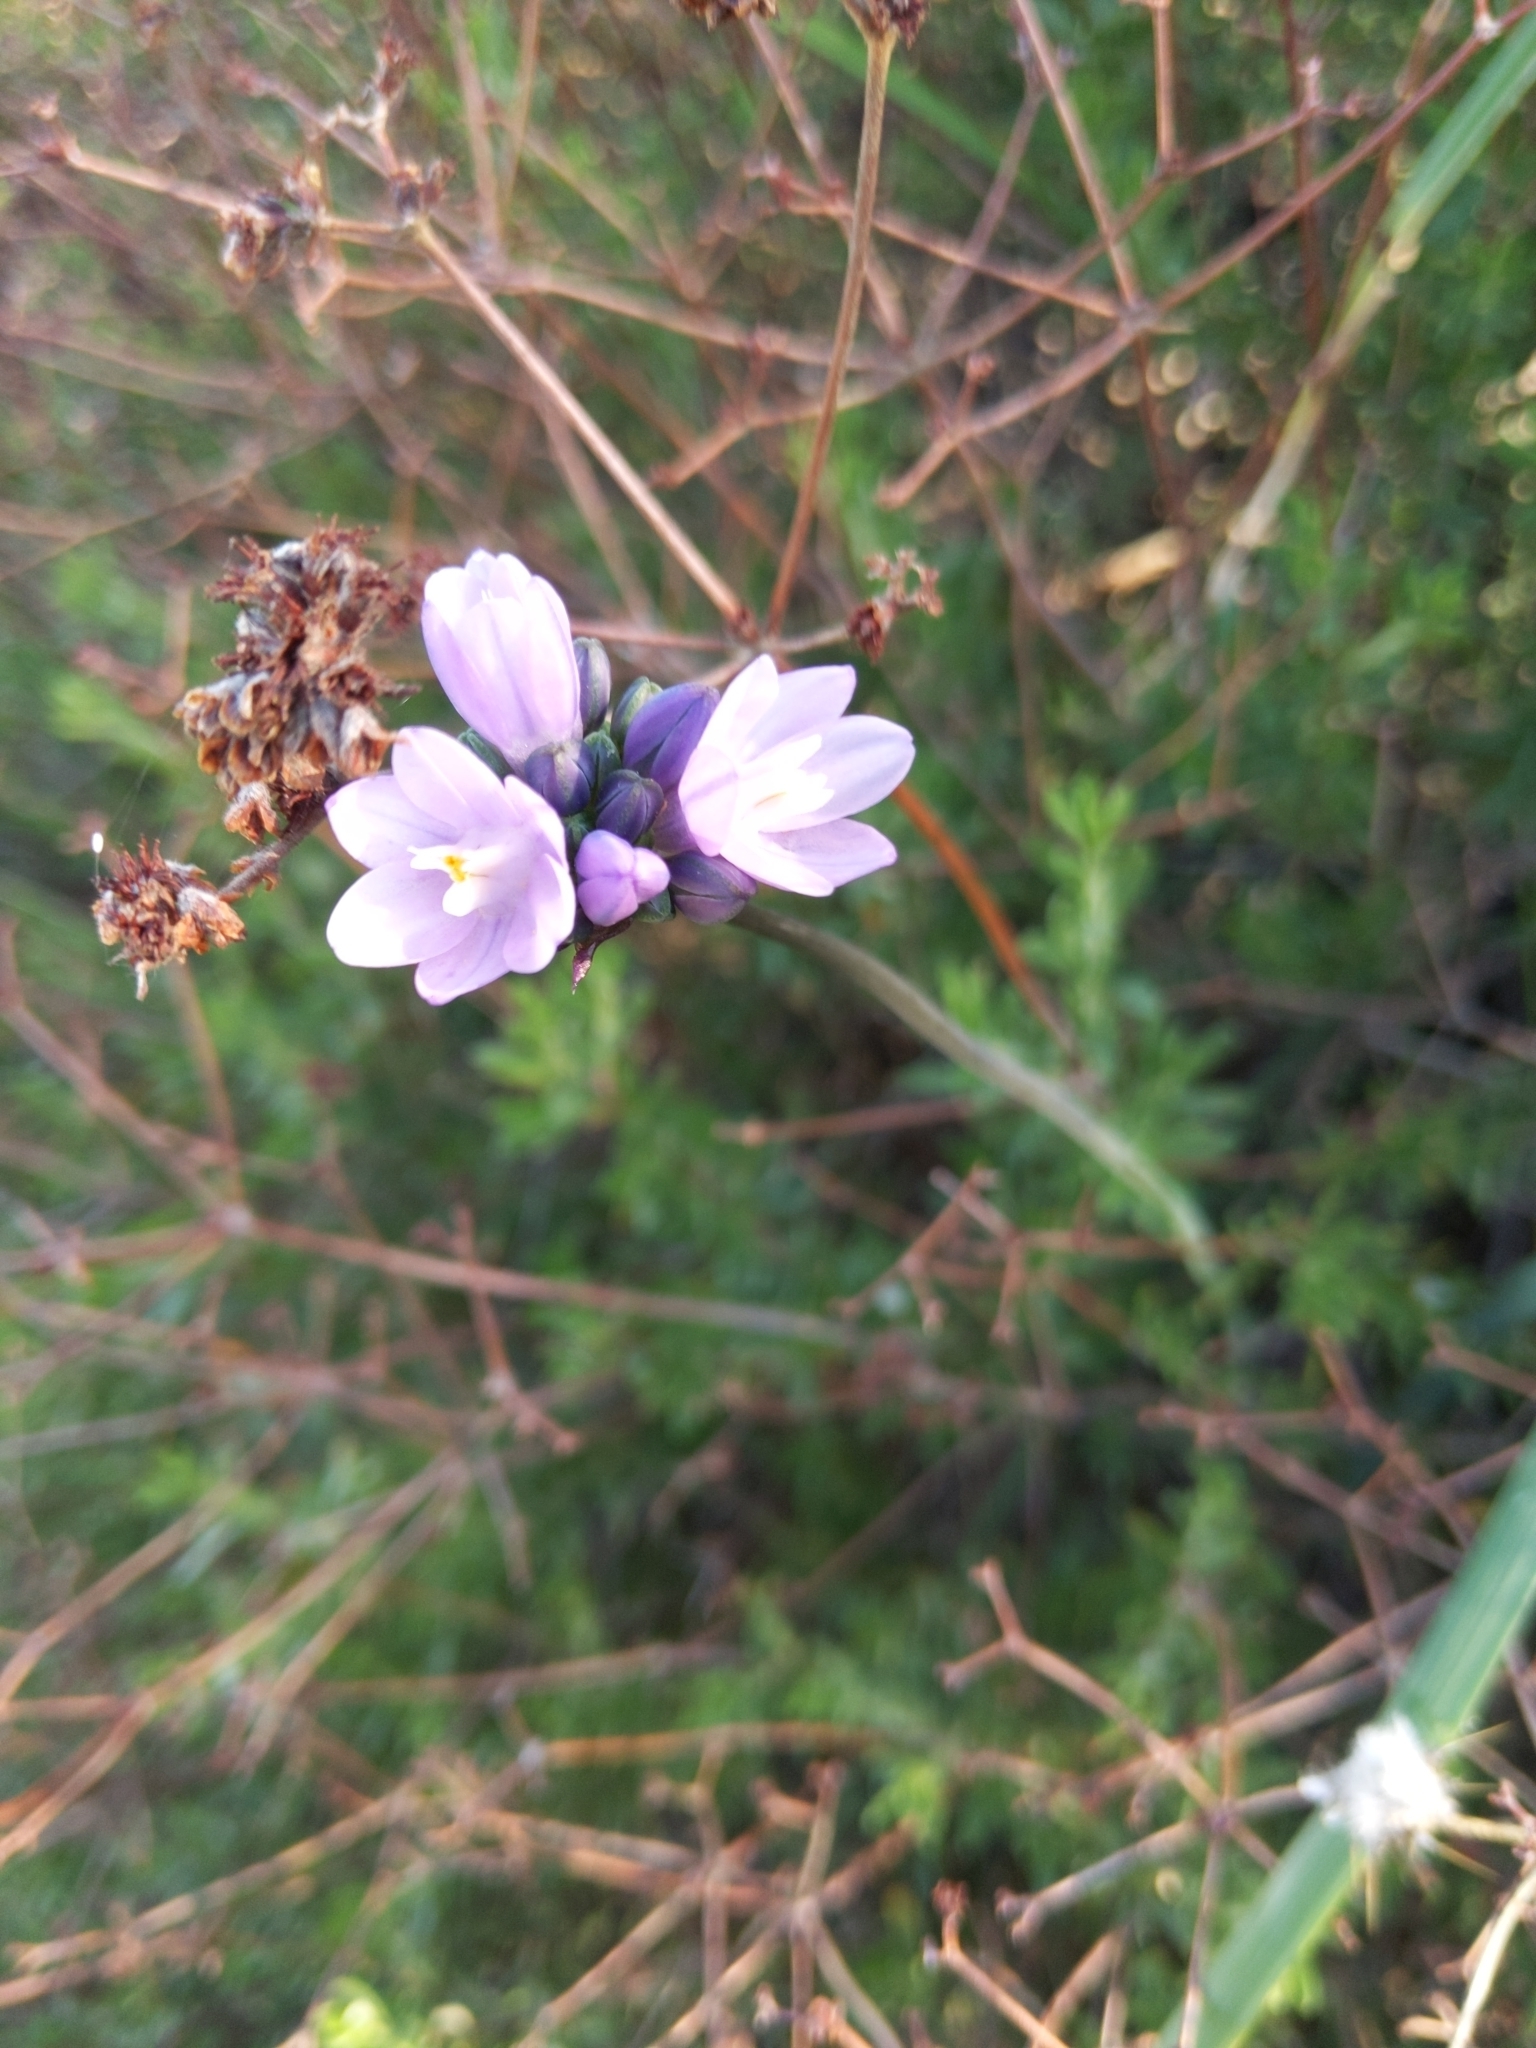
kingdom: Plantae
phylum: Tracheophyta
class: Liliopsida
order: Asparagales
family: Asparagaceae
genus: Dipterostemon
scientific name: Dipterostemon capitatus
